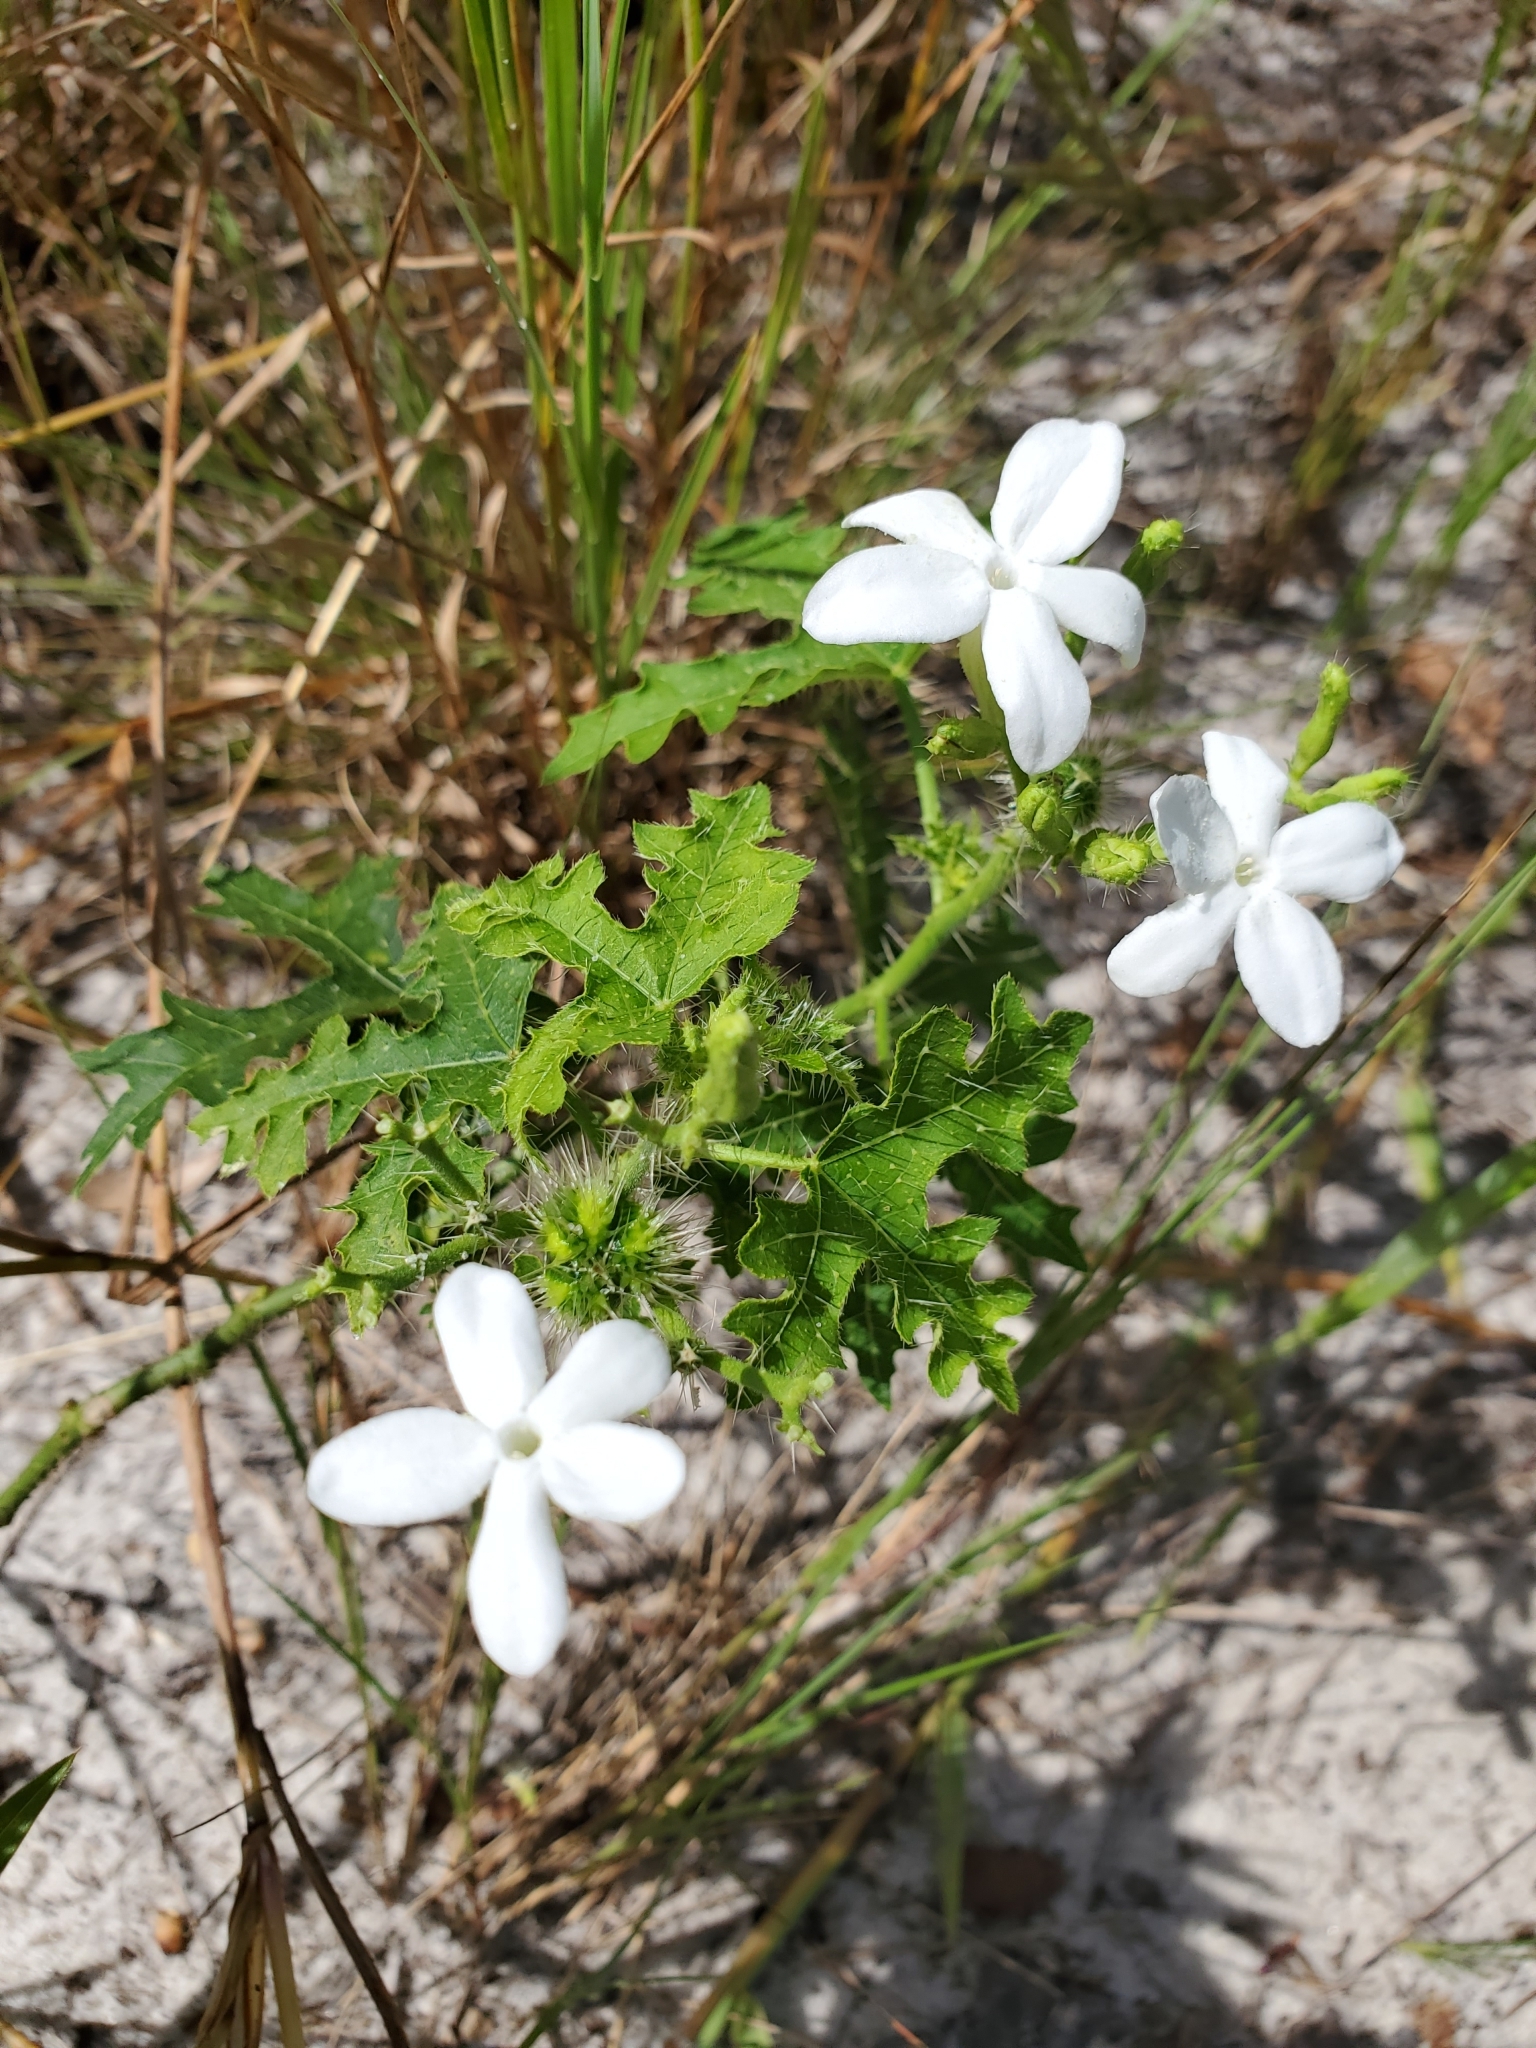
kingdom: Plantae
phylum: Tracheophyta
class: Magnoliopsida
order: Malpighiales
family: Euphorbiaceae
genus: Cnidoscolus
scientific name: Cnidoscolus stimulosus
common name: Bull-nettle
